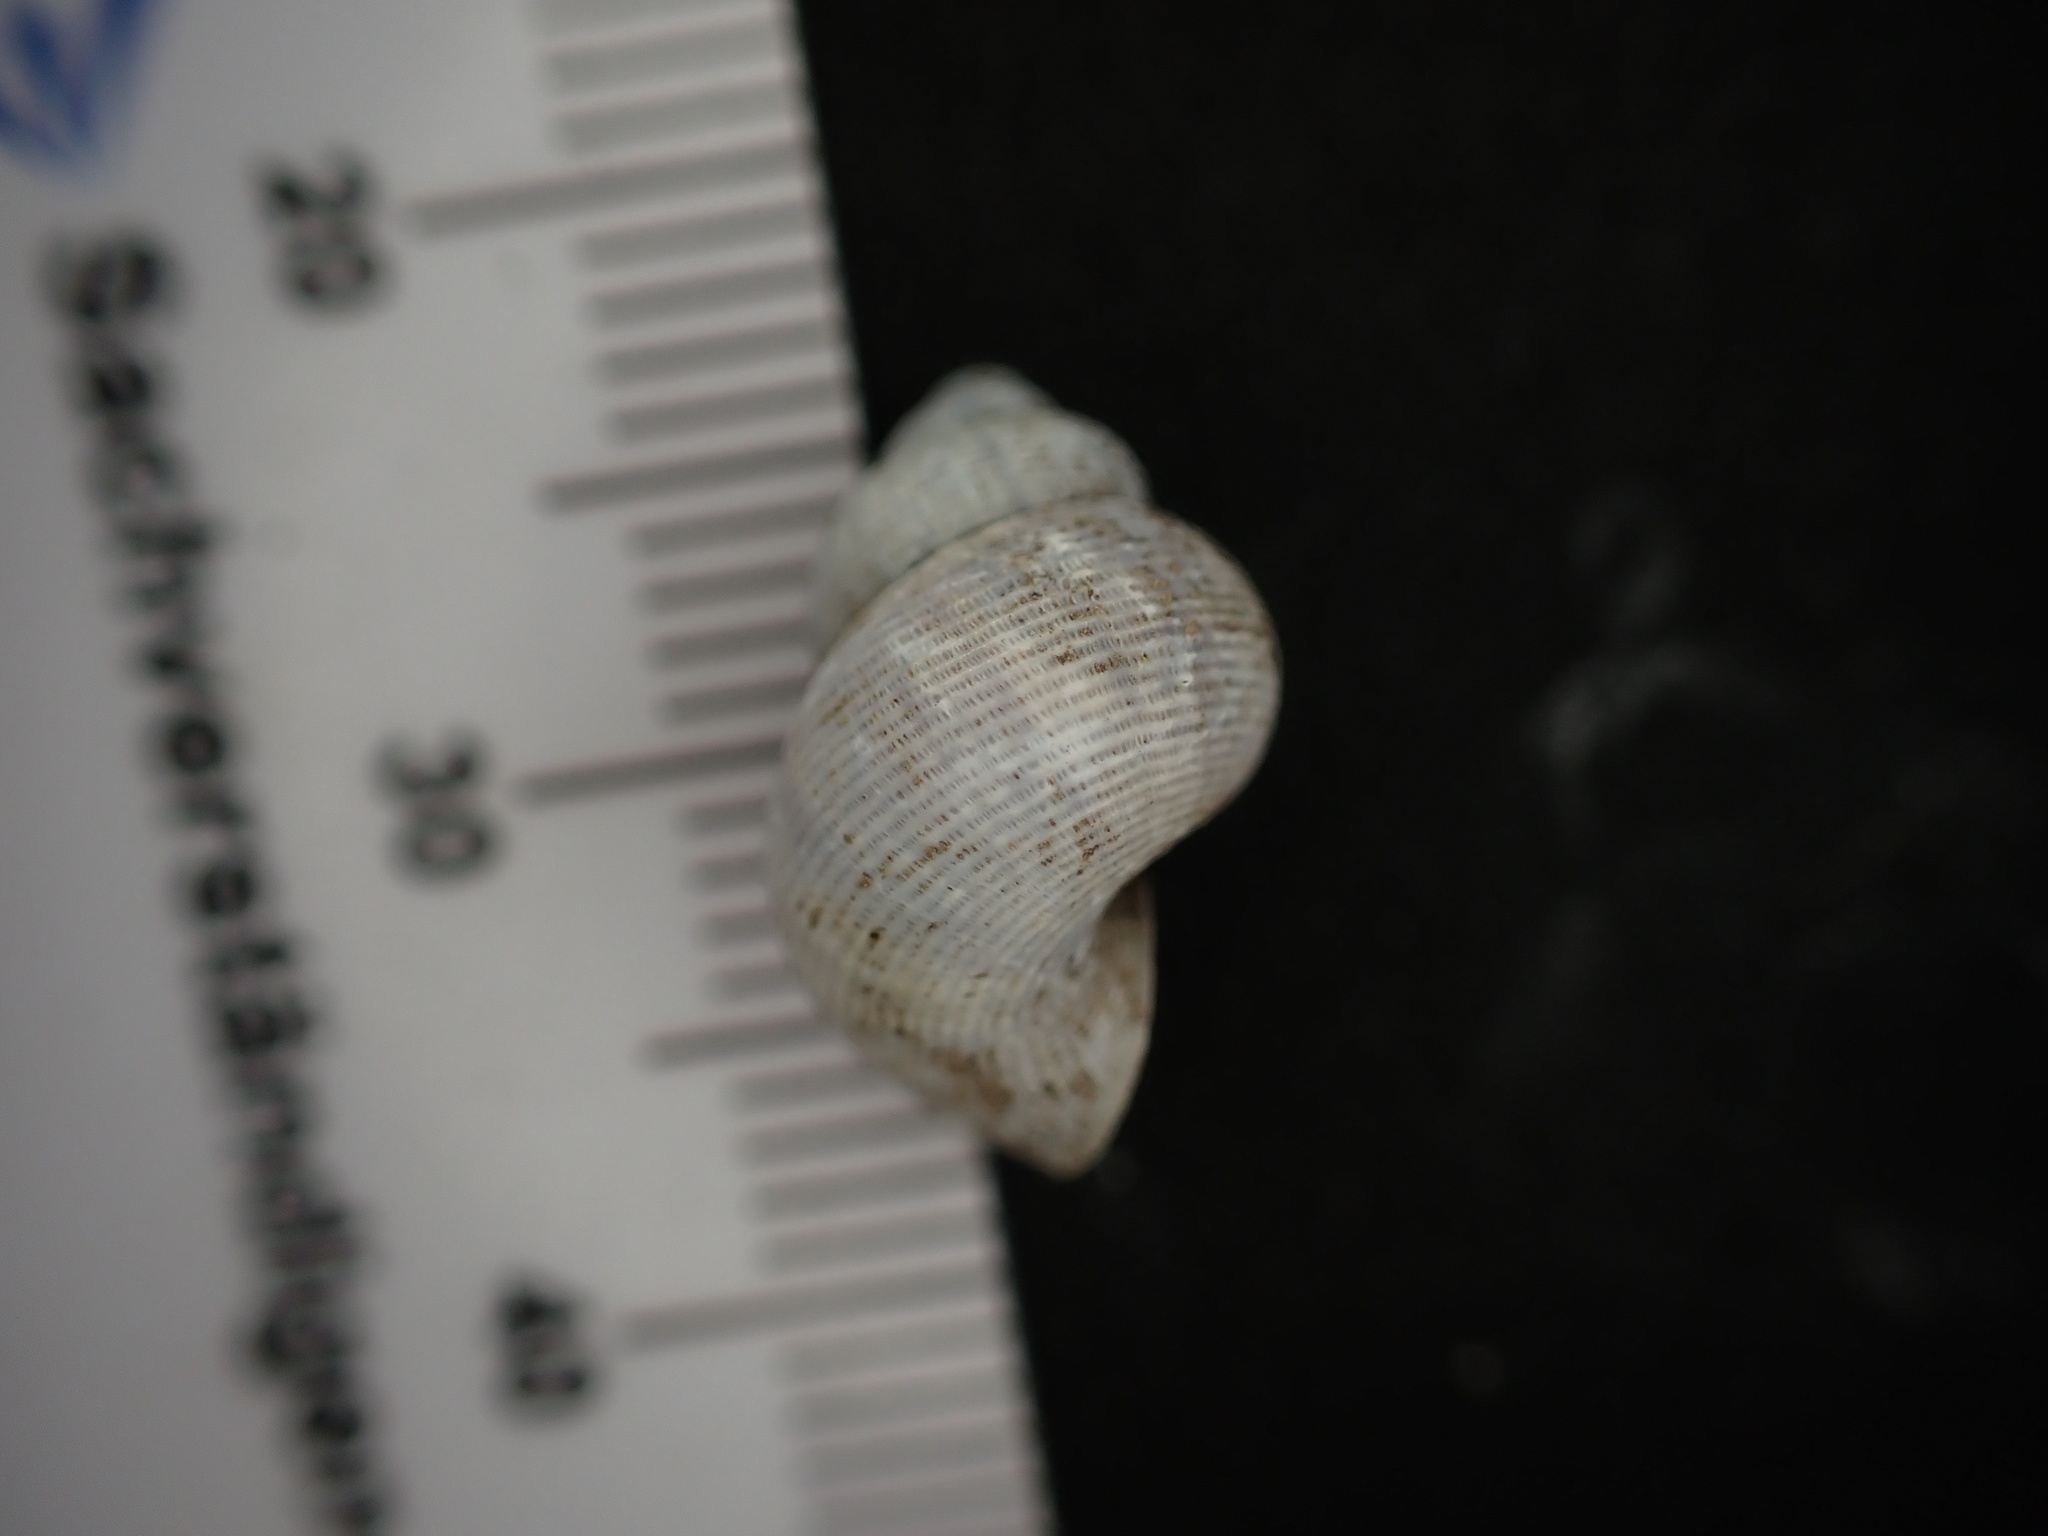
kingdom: Animalia
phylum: Mollusca
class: Gastropoda
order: Littorinimorpha
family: Pomatiidae
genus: Pomatias
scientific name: Pomatias elegans
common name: Red-mouthed snail
